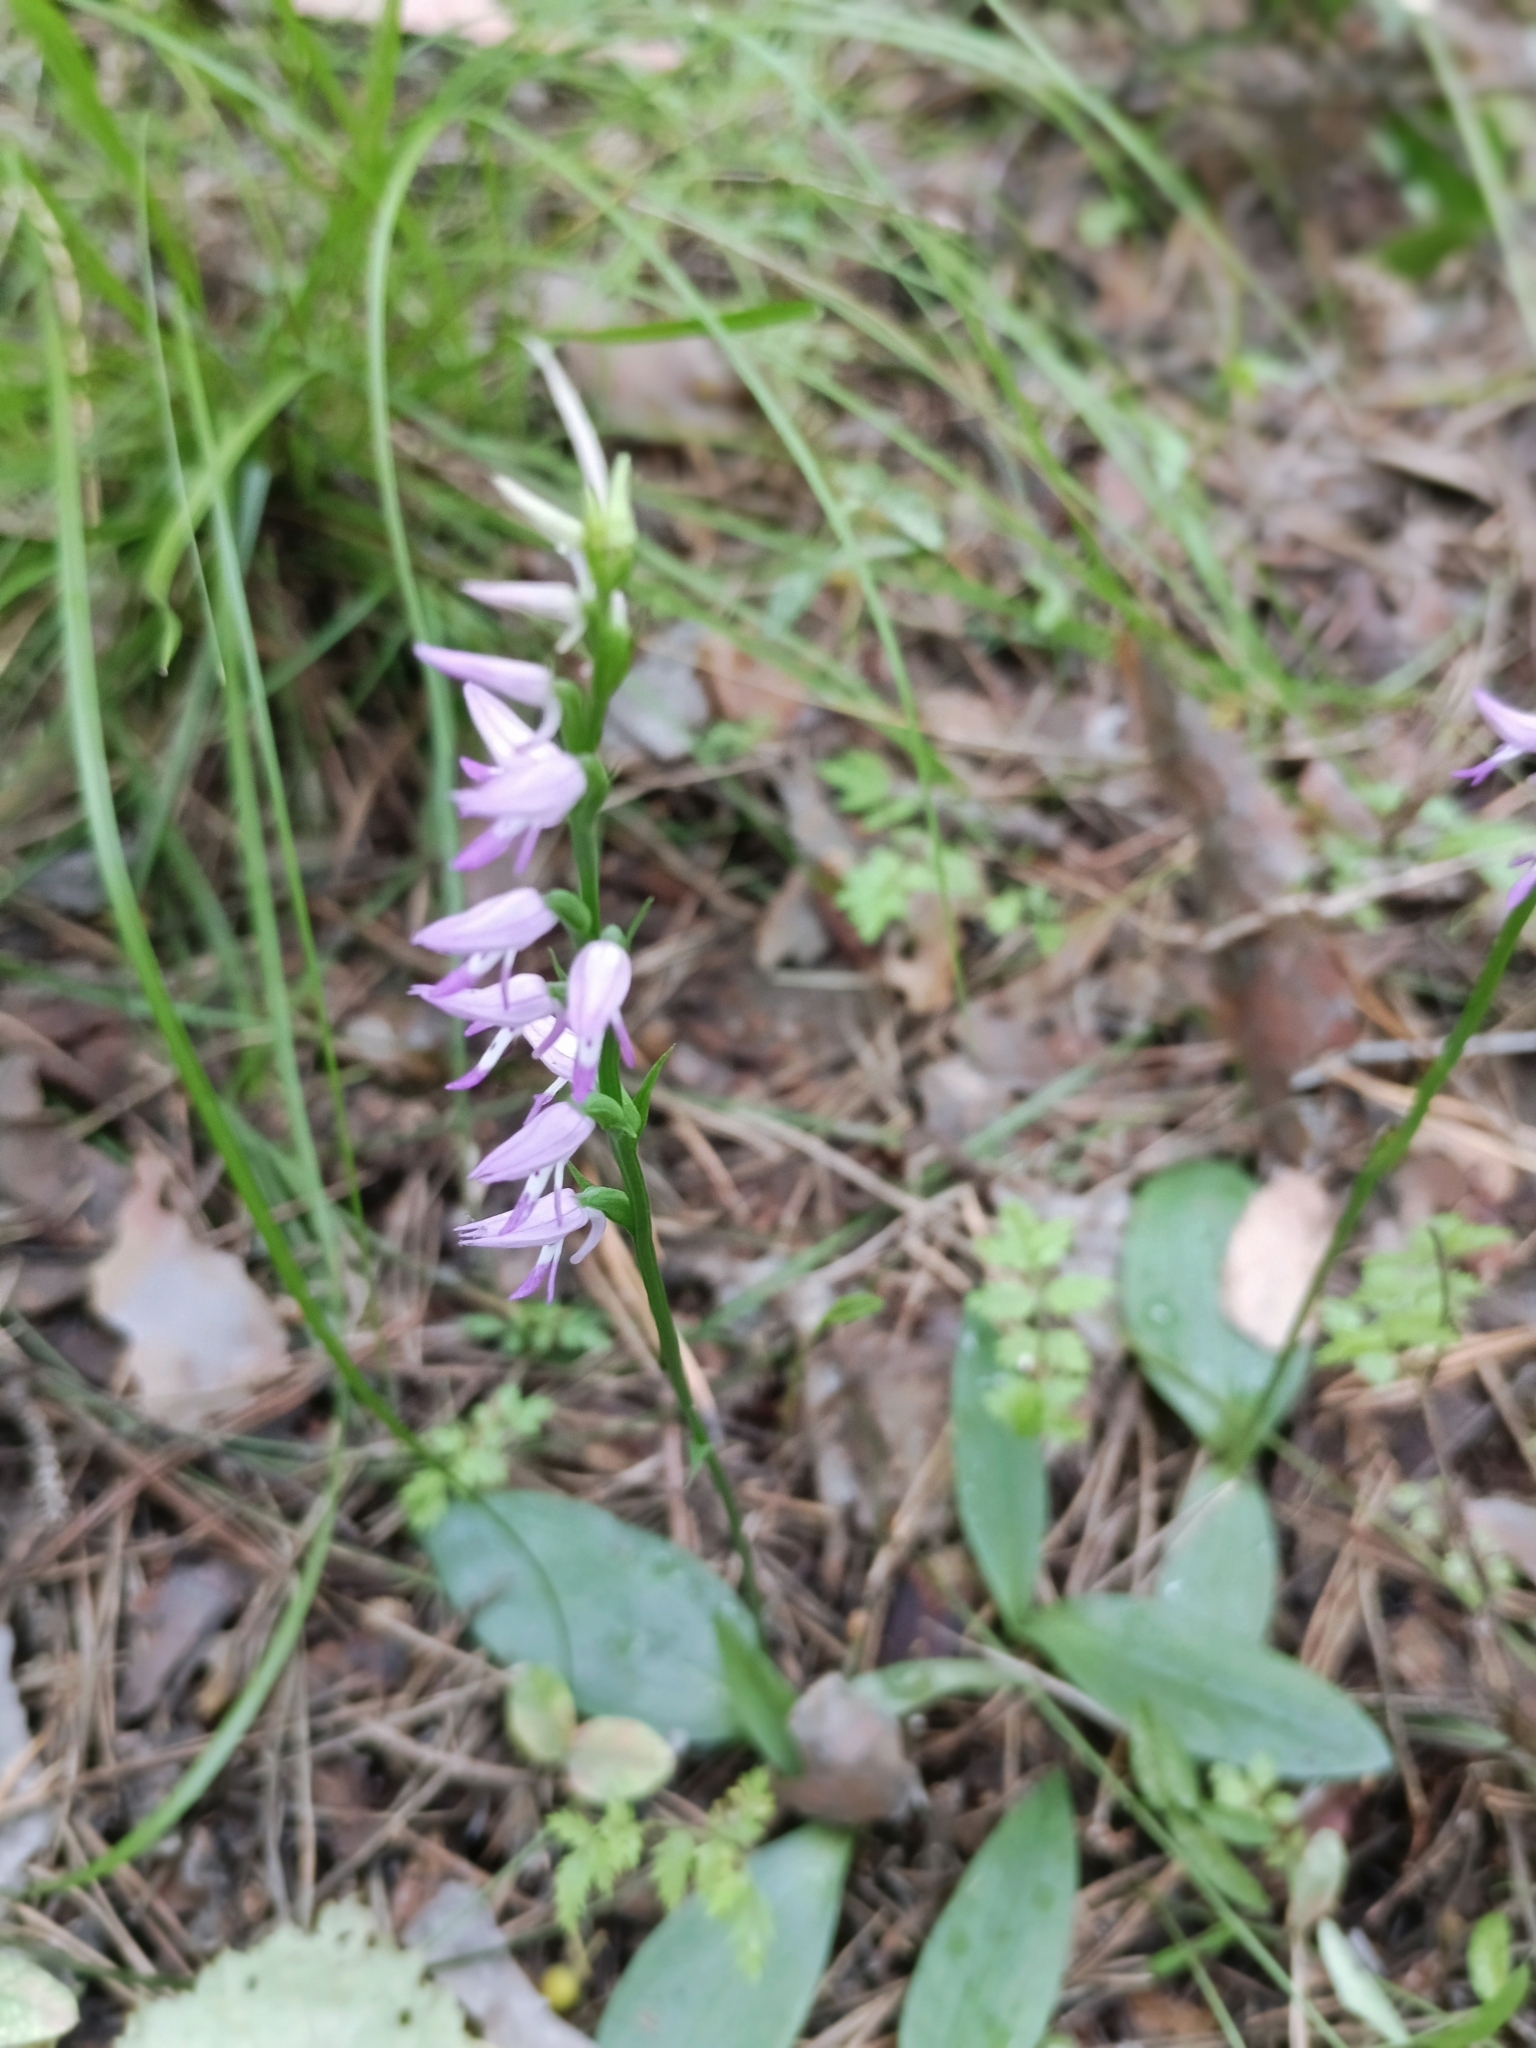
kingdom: Plantae
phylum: Tracheophyta
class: Liliopsida
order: Asparagales
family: Orchidaceae
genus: Hemipilia
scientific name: Hemipilia cucullata
